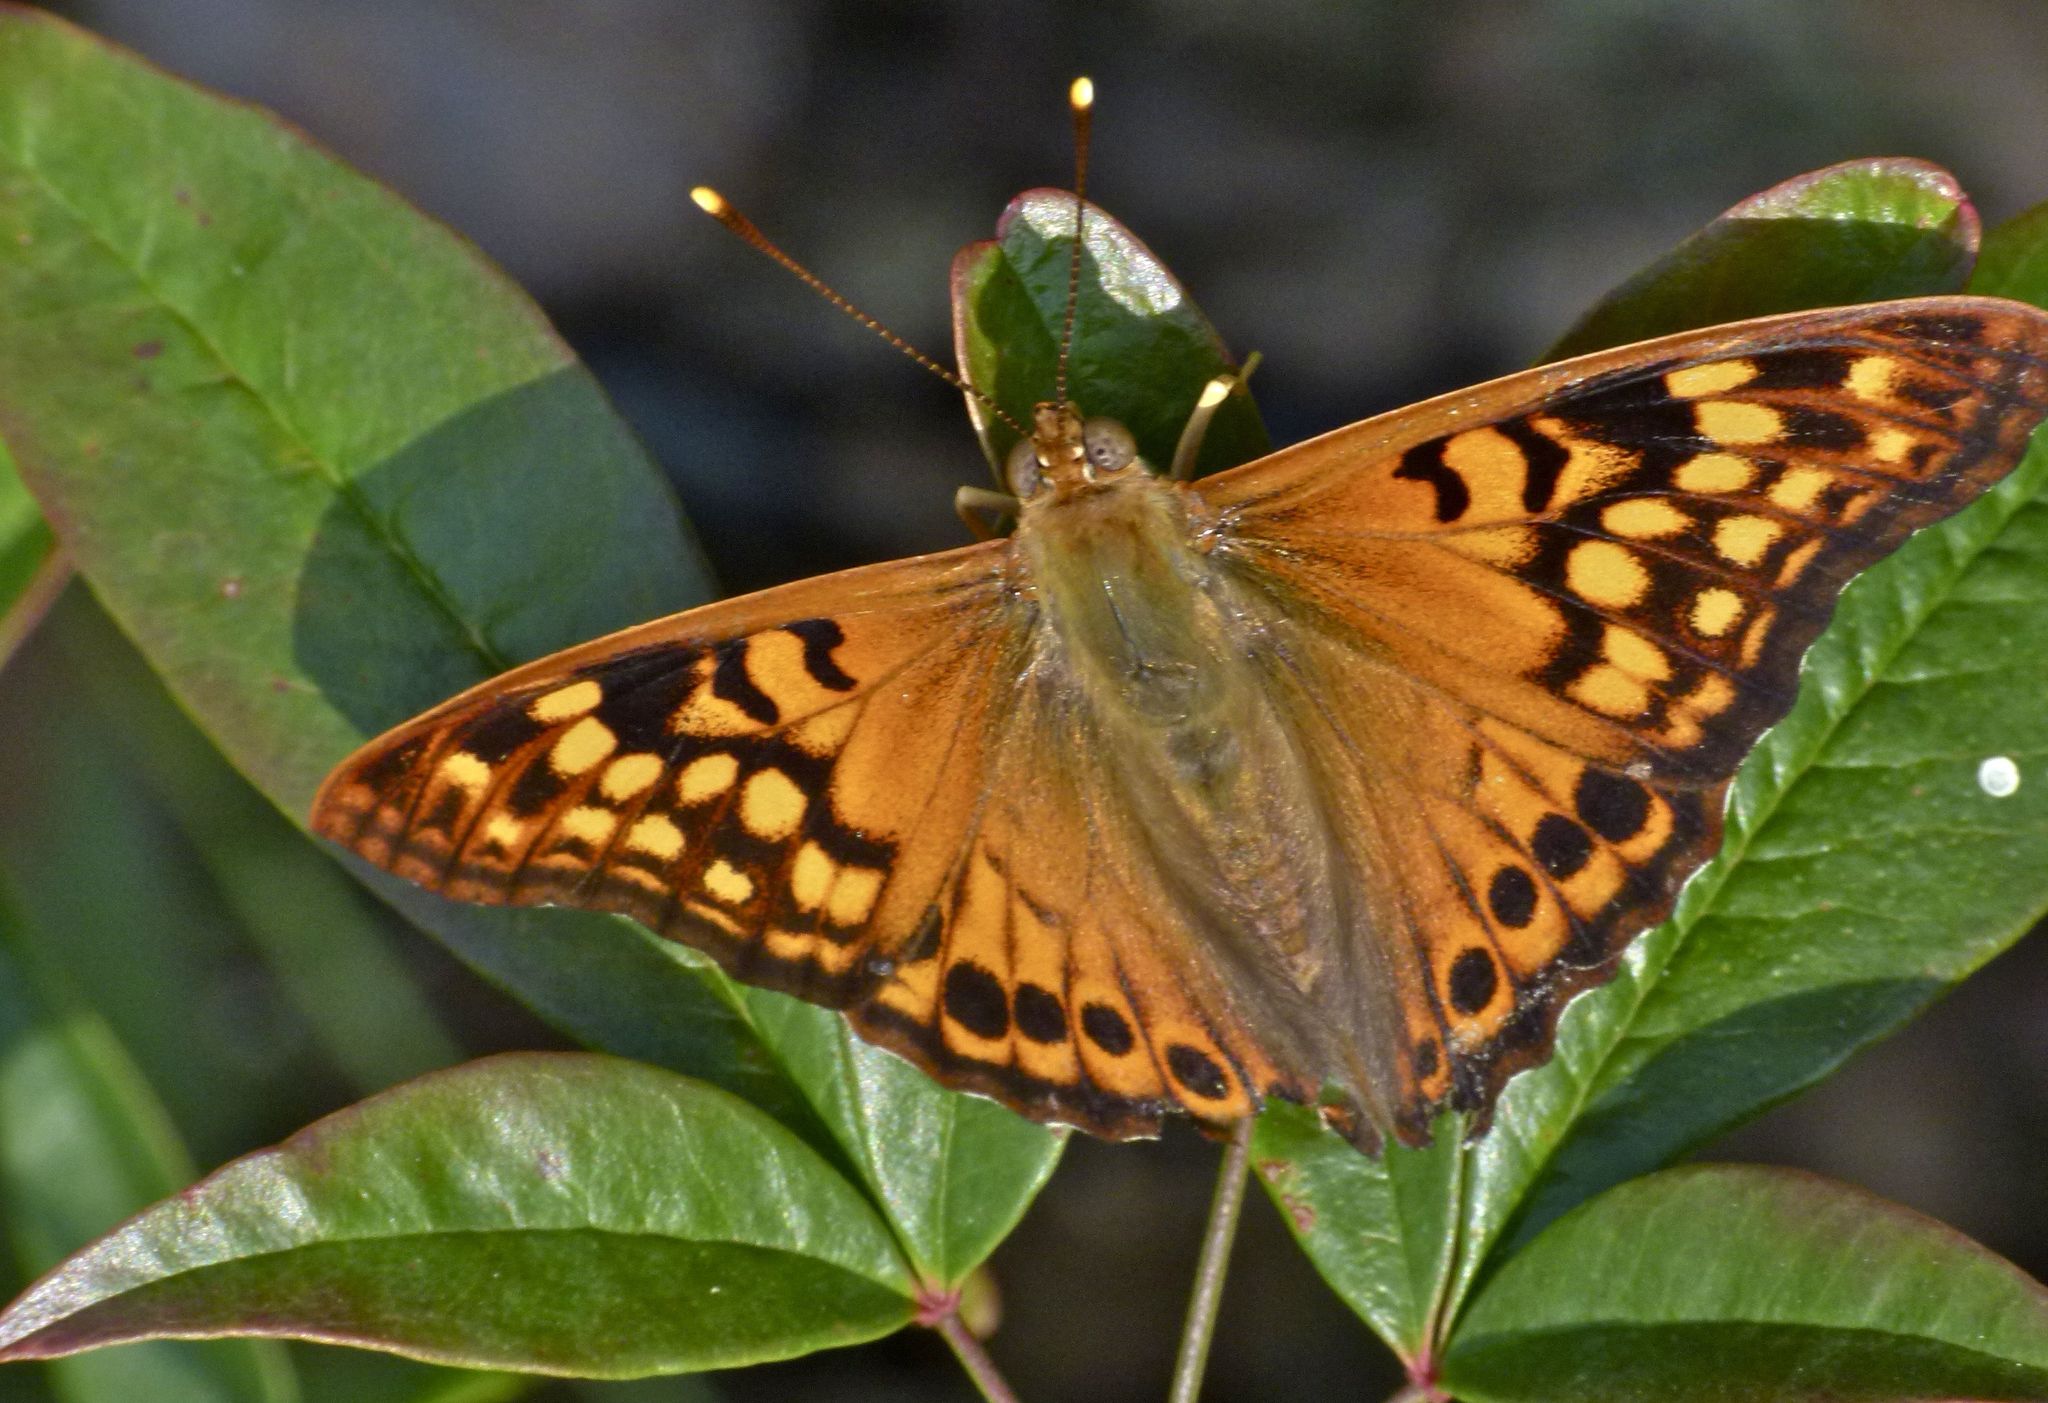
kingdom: Animalia
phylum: Arthropoda
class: Insecta
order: Lepidoptera
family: Nymphalidae
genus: Asterocampa
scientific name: Asterocampa clyton
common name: Tawny emperor
